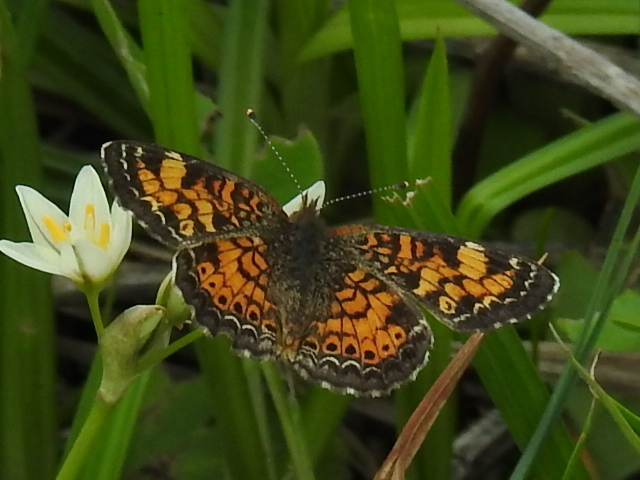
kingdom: Animalia
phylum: Arthropoda
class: Insecta
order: Lepidoptera
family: Nymphalidae
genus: Phyciodes
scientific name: Phyciodes tharos
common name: Pearl crescent
